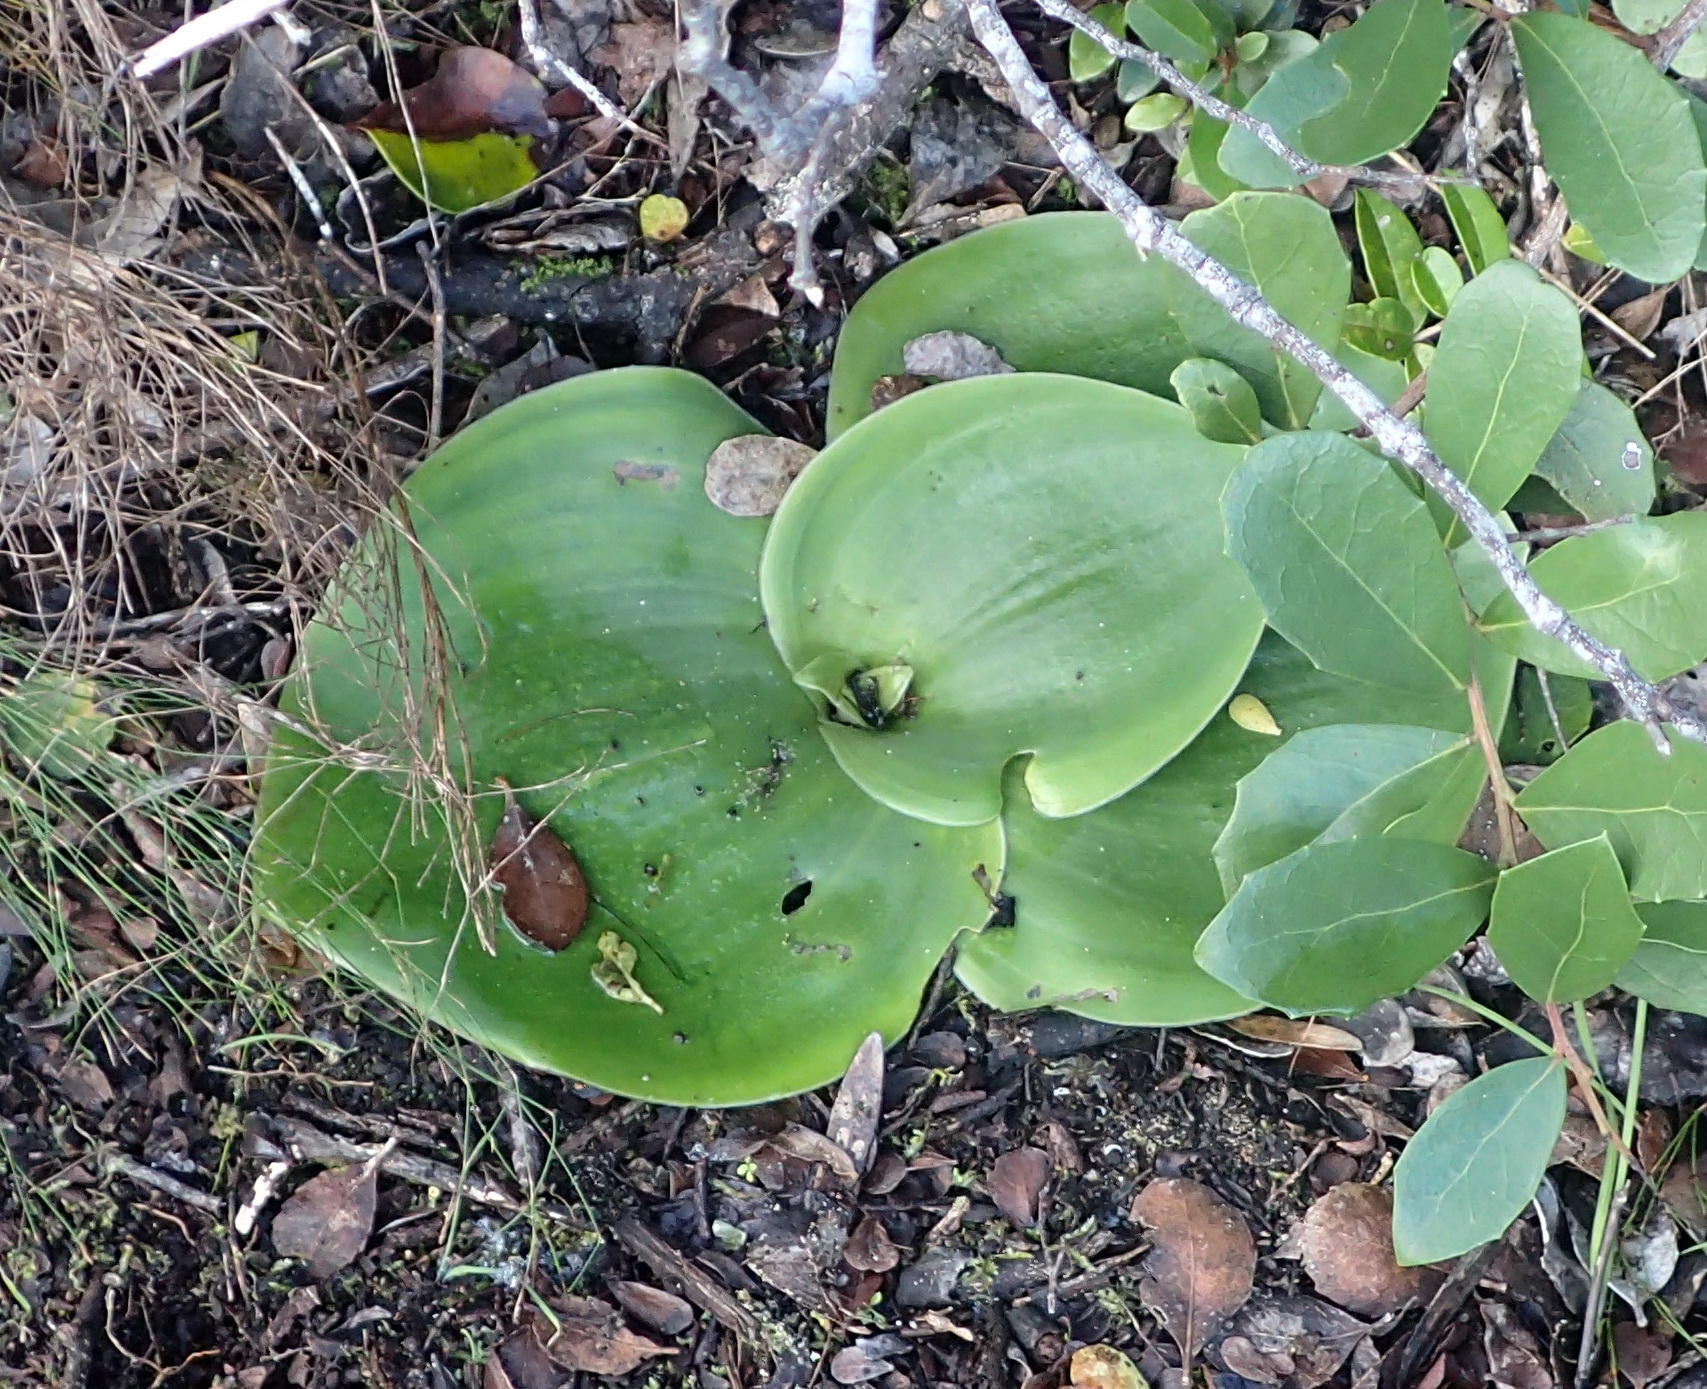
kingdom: Plantae
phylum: Tracheophyta
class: Liliopsida
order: Asparagales
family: Orchidaceae
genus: Satyrium
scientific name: Satyrium princeps
